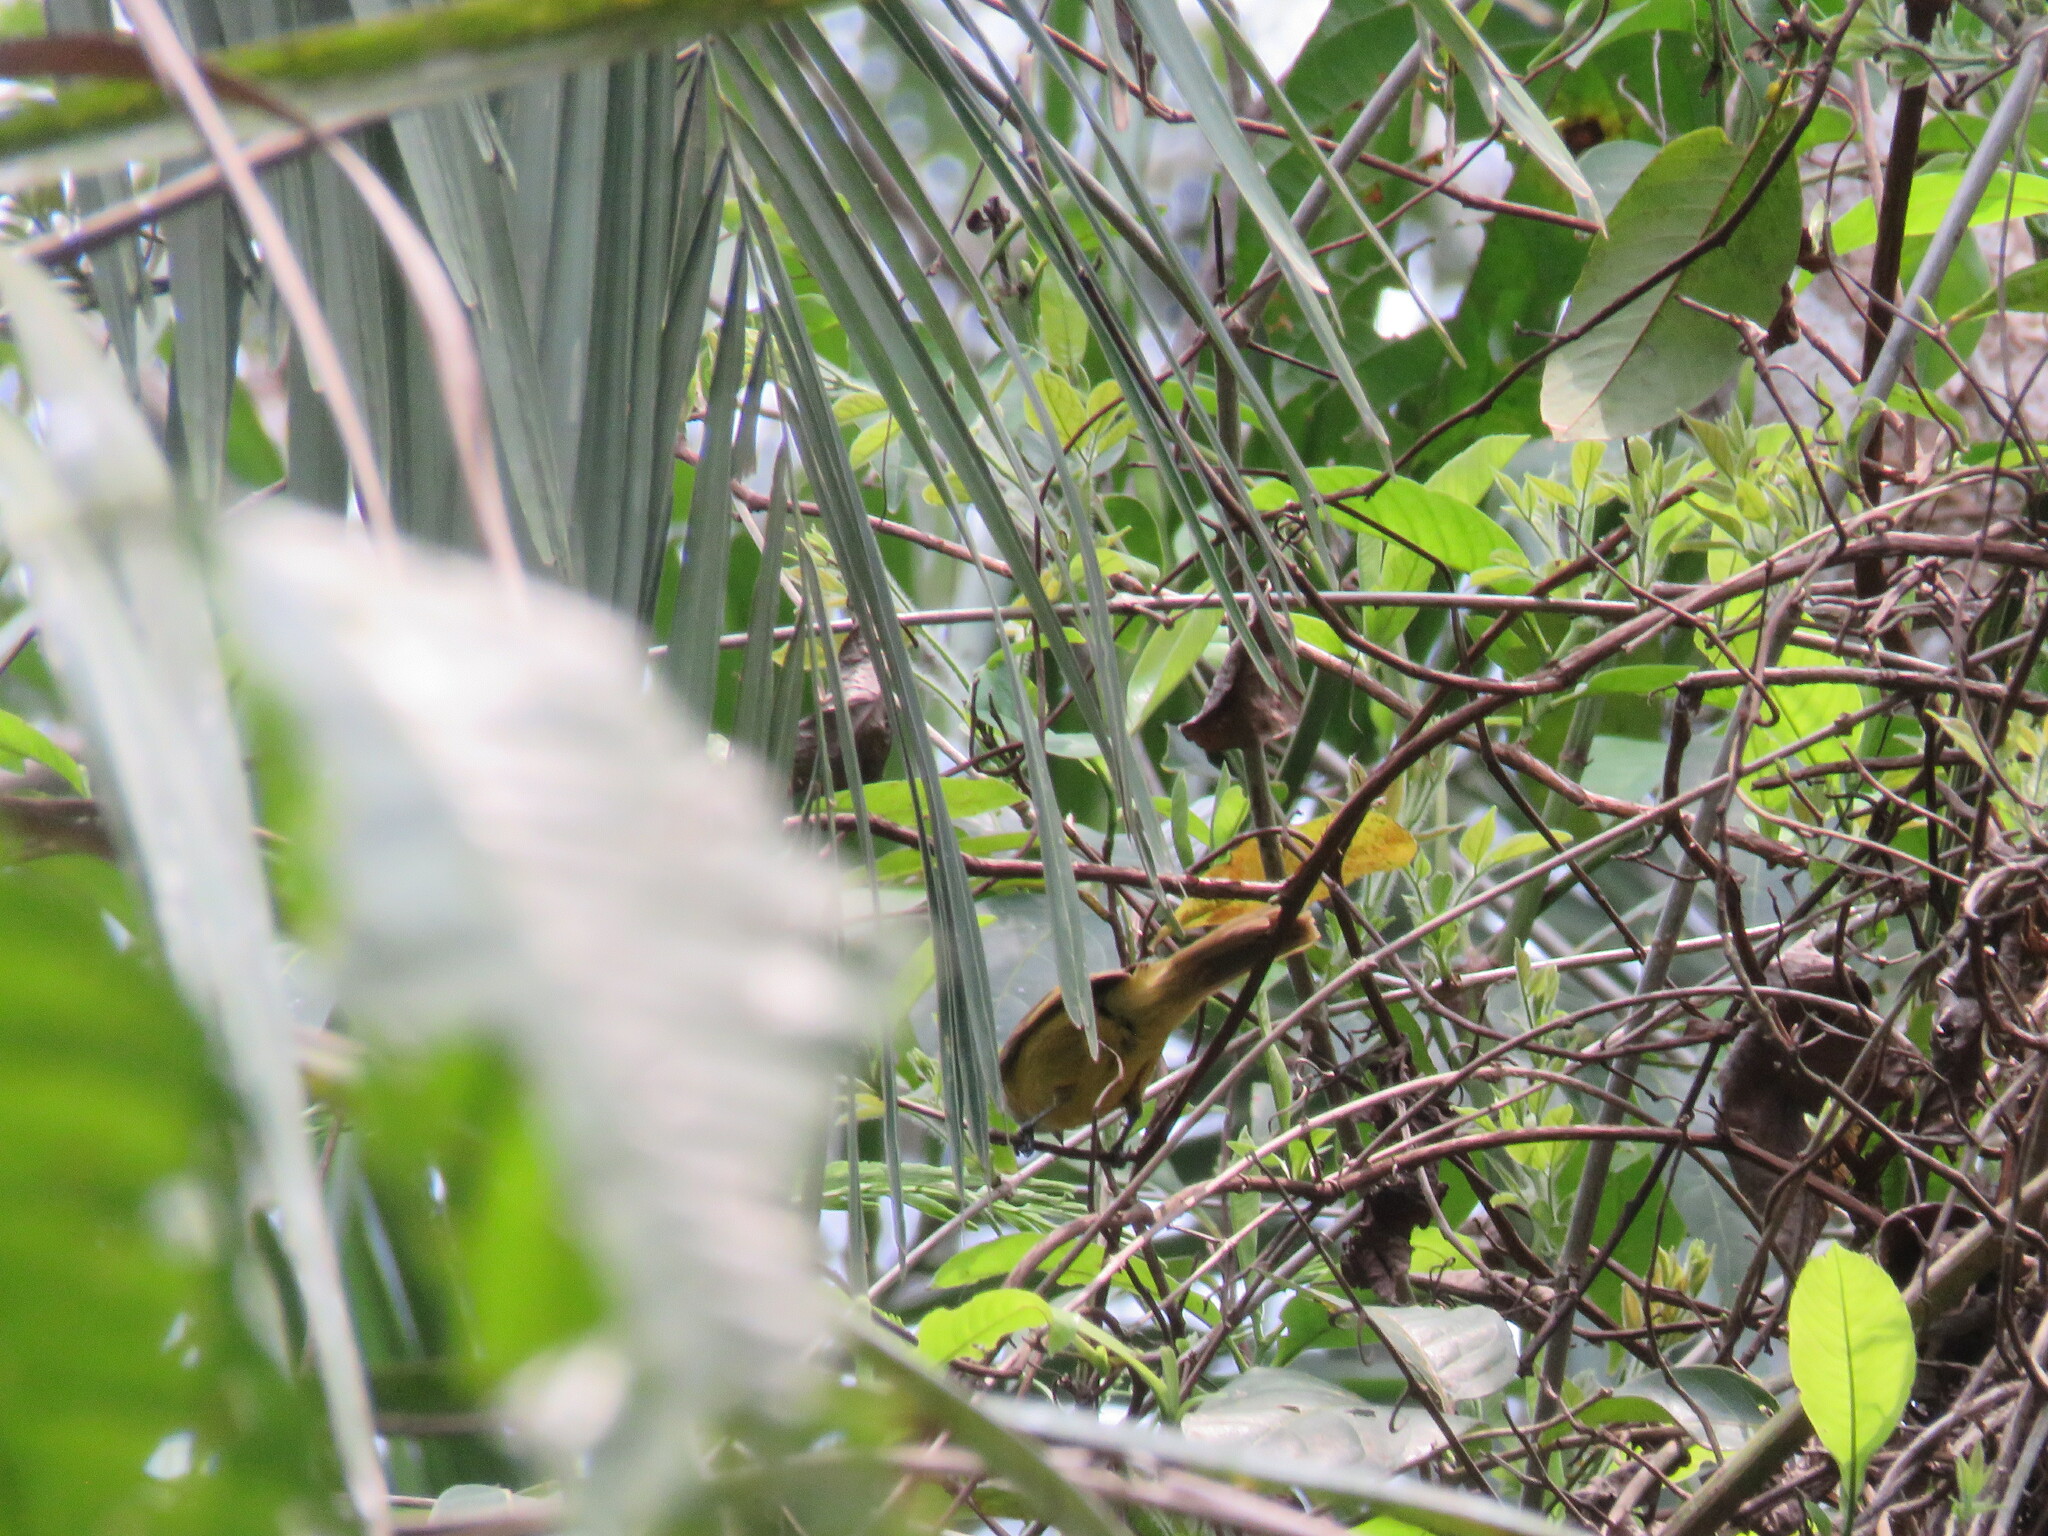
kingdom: Animalia
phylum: Chordata
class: Aves
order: Passeriformes
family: Thraupidae
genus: Lanio
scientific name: Lanio versicolor
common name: White-winged shrike-tanager
